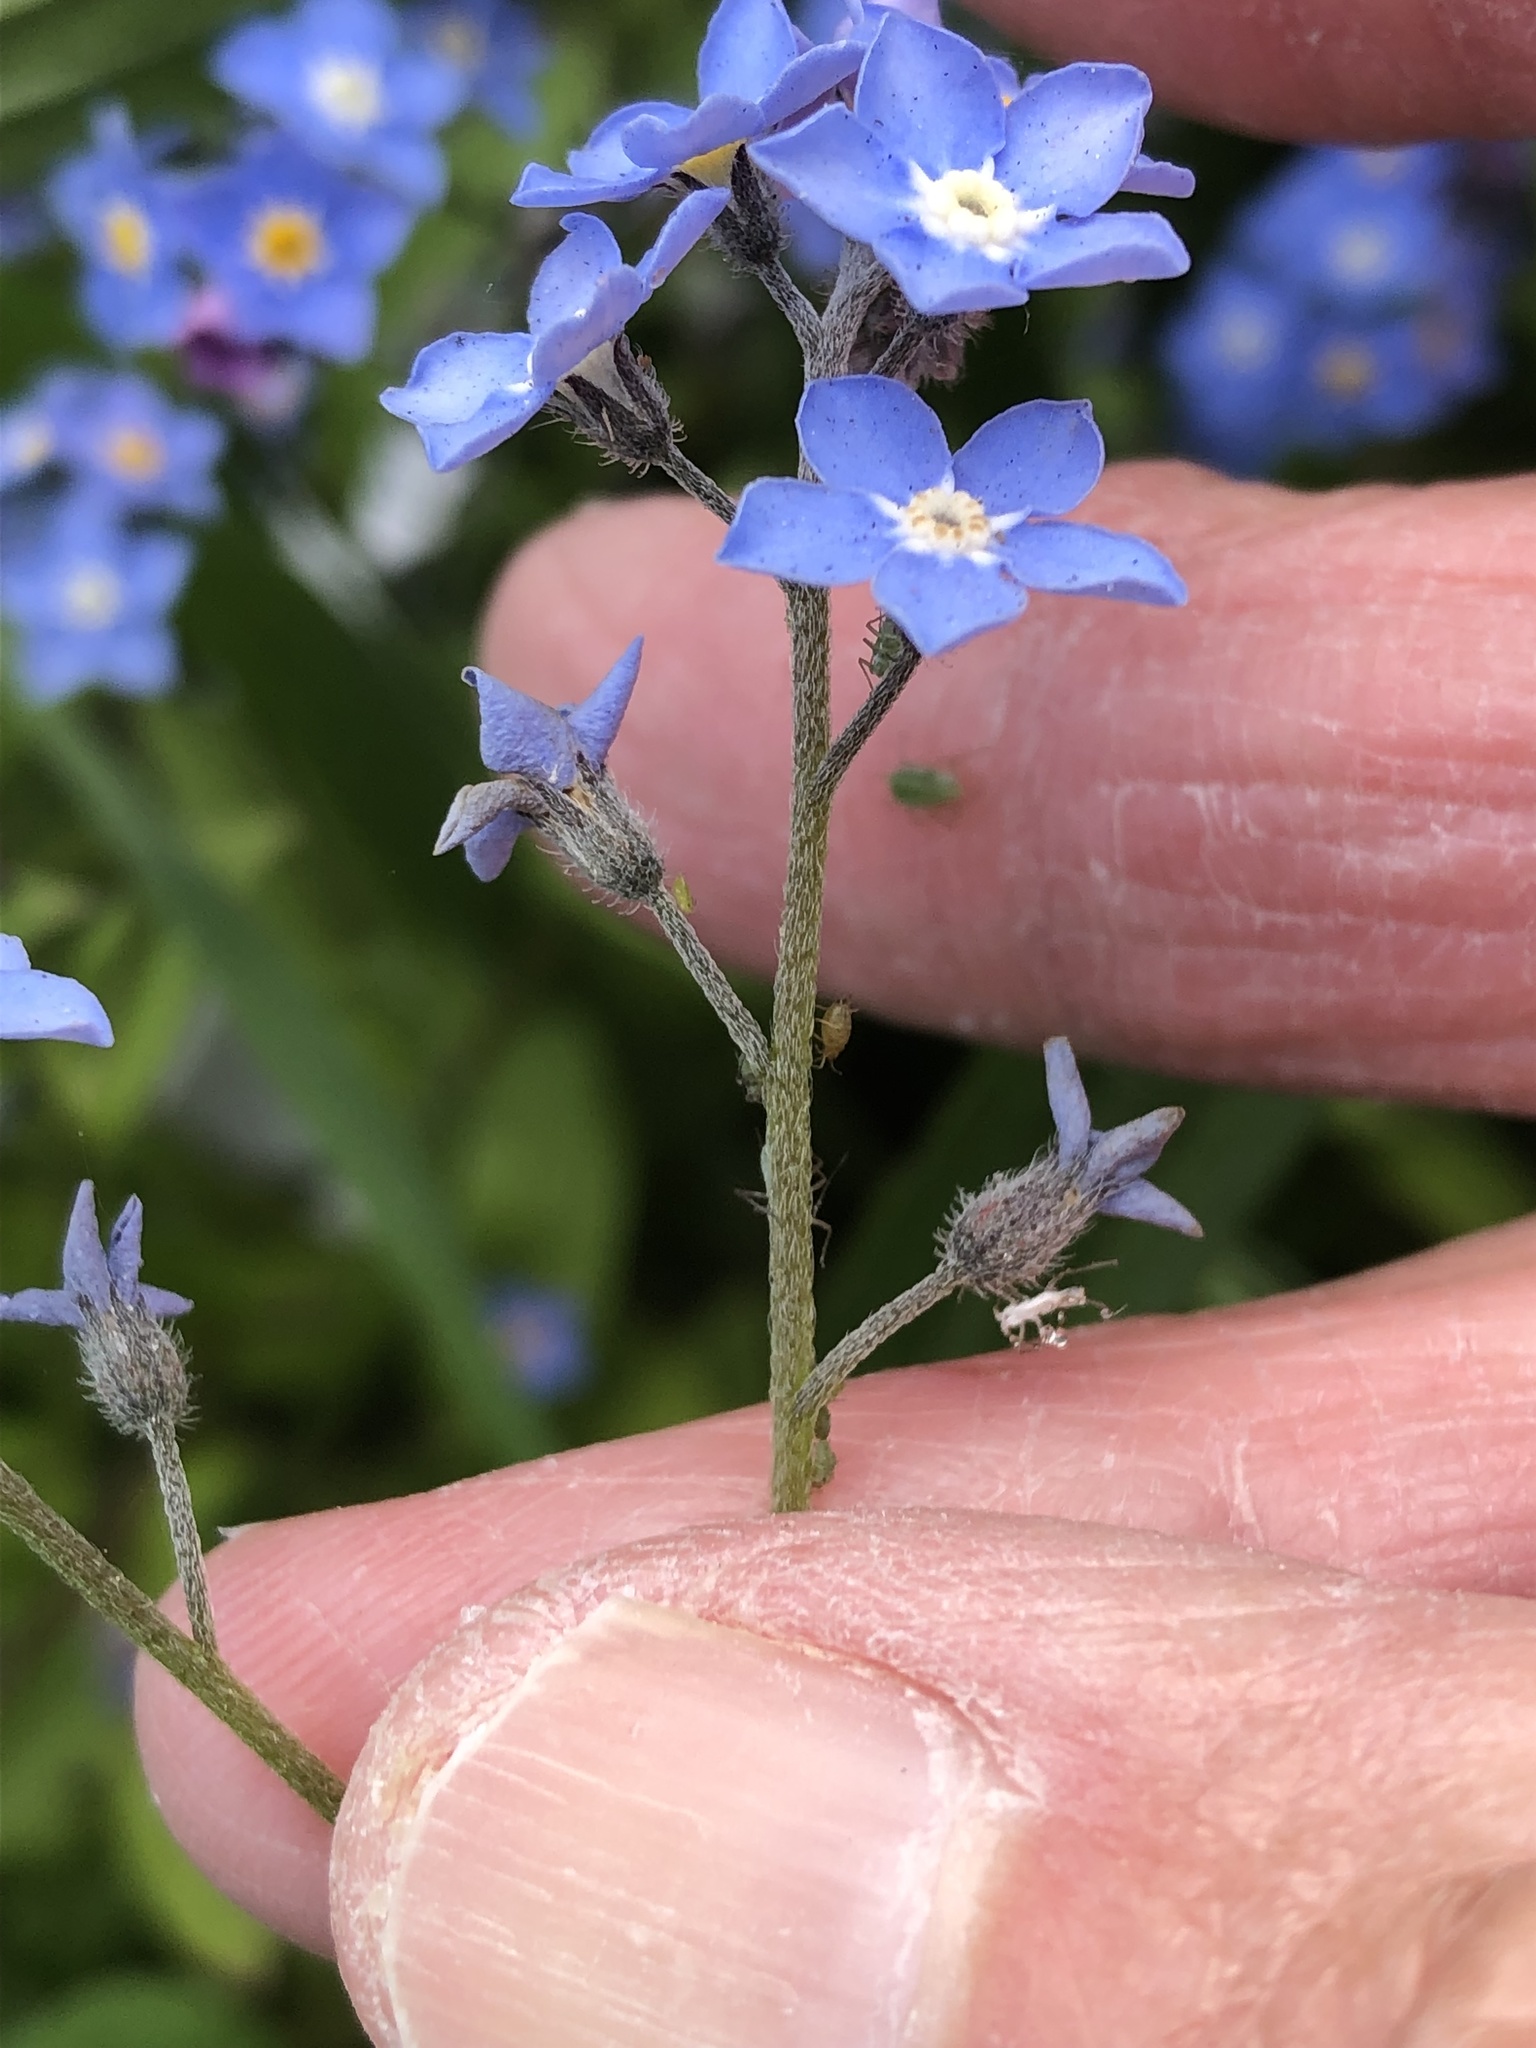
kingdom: Plantae
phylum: Tracheophyta
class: Magnoliopsida
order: Boraginales
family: Boraginaceae
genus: Myosotis
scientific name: Myosotis sylvatica
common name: Wood forget-me-not
